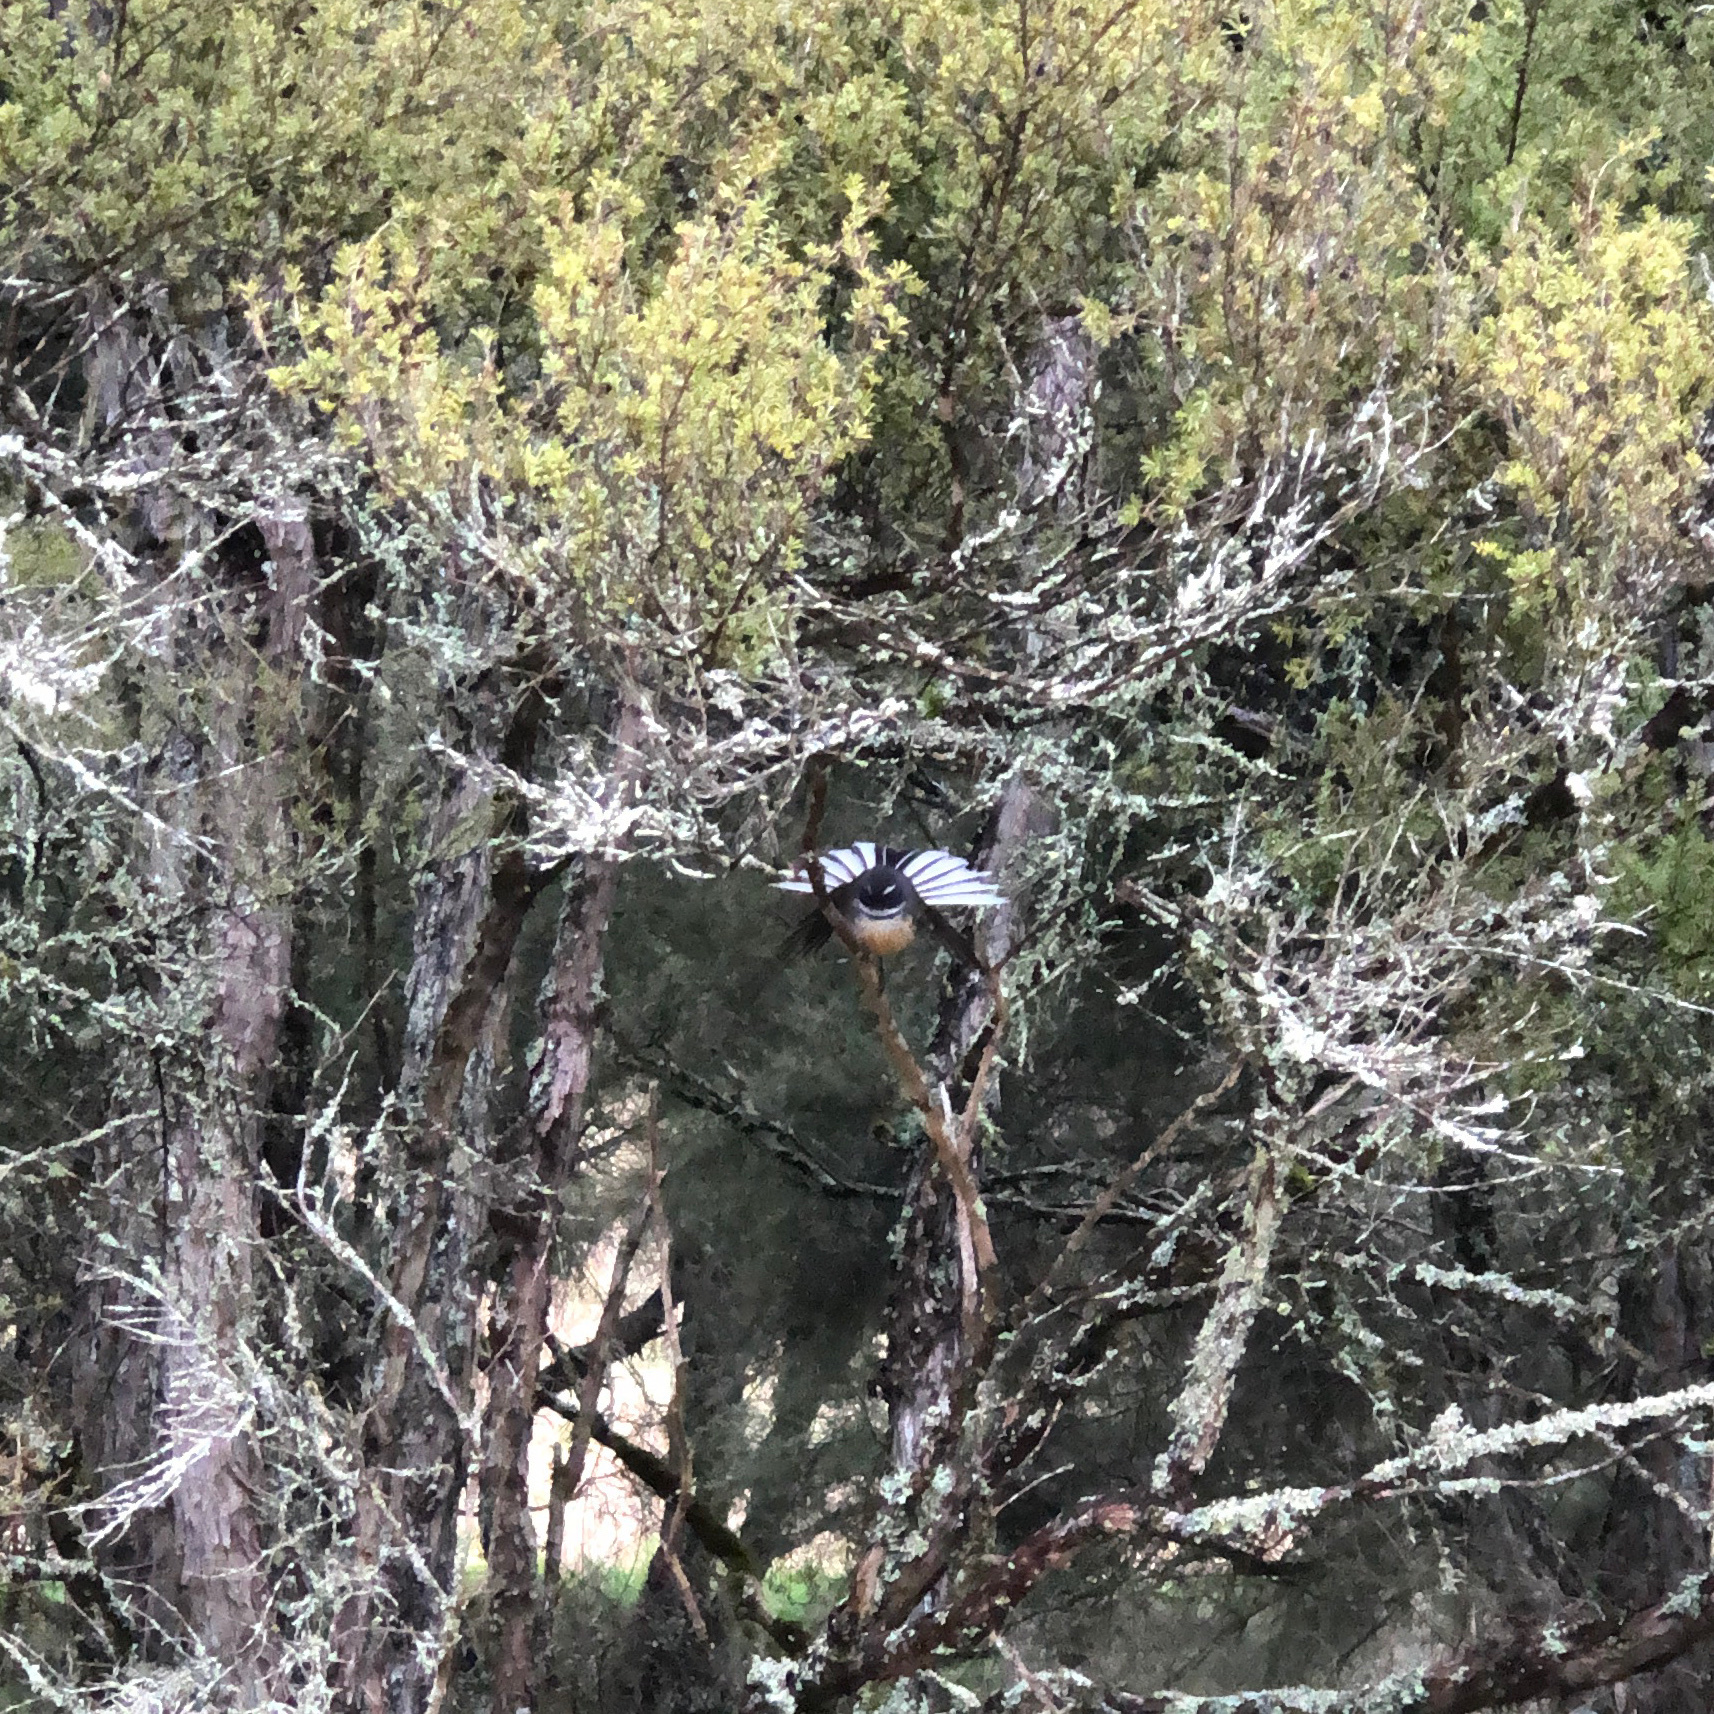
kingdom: Animalia
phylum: Chordata
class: Aves
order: Passeriformes
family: Rhipiduridae
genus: Rhipidura
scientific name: Rhipidura fuliginosa
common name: New zealand fantail
